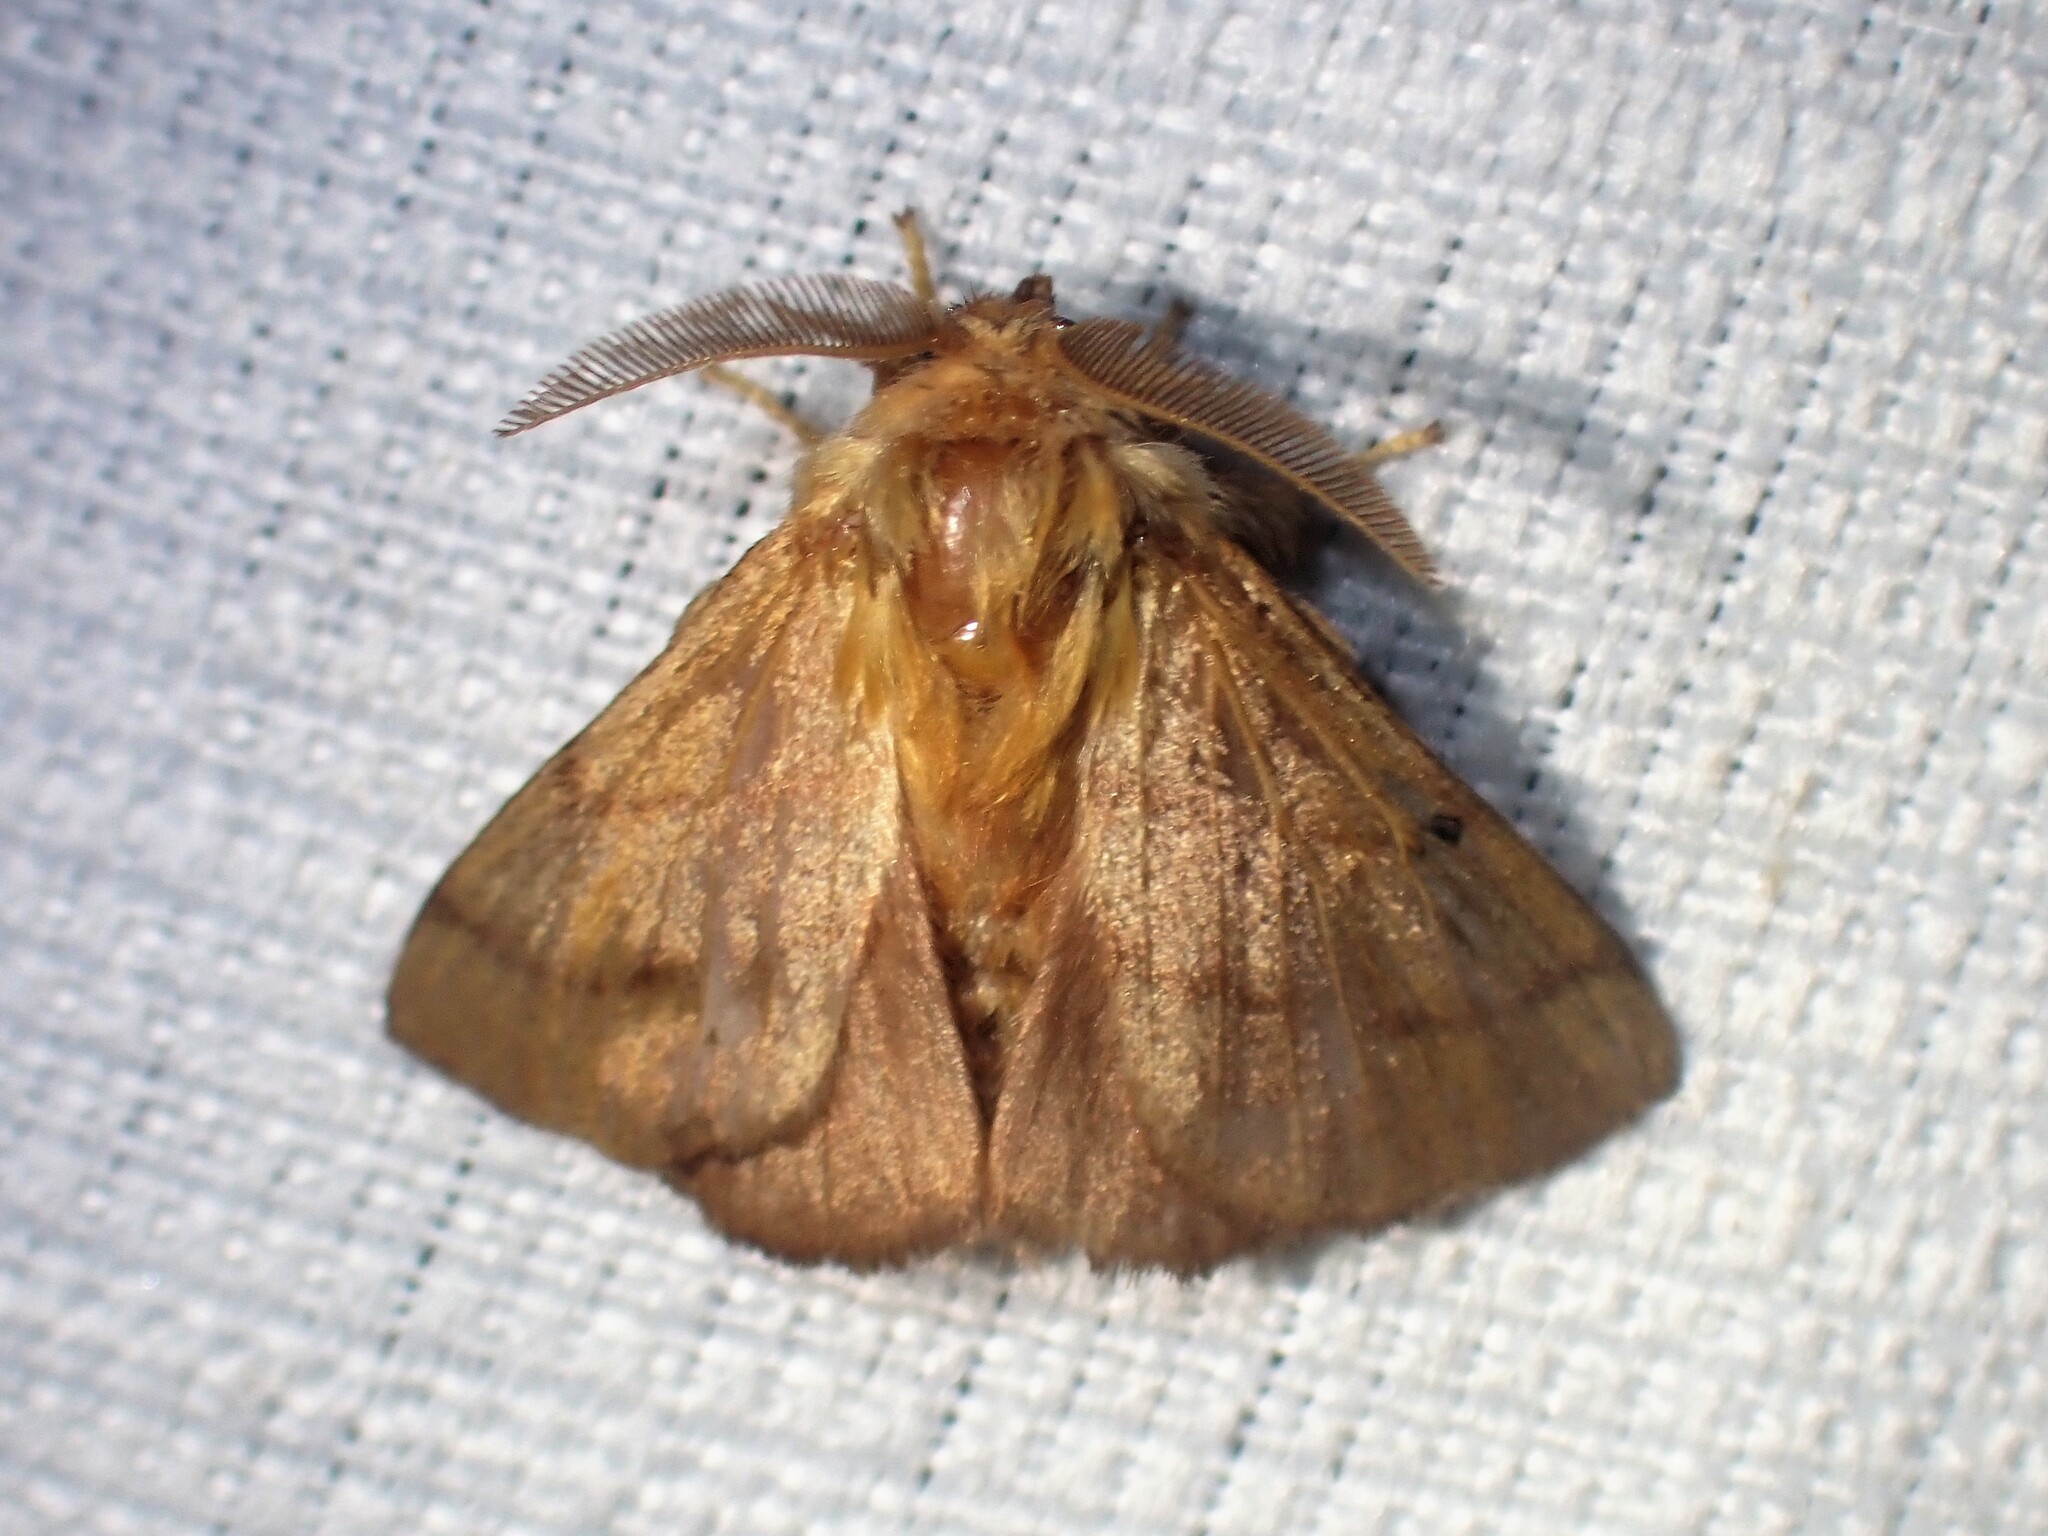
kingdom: Animalia
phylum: Arthropoda
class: Insecta
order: Lepidoptera
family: Lasiocampidae
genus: Malacosoma
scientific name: Malacosoma disstria
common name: Forest tent caterpillar
